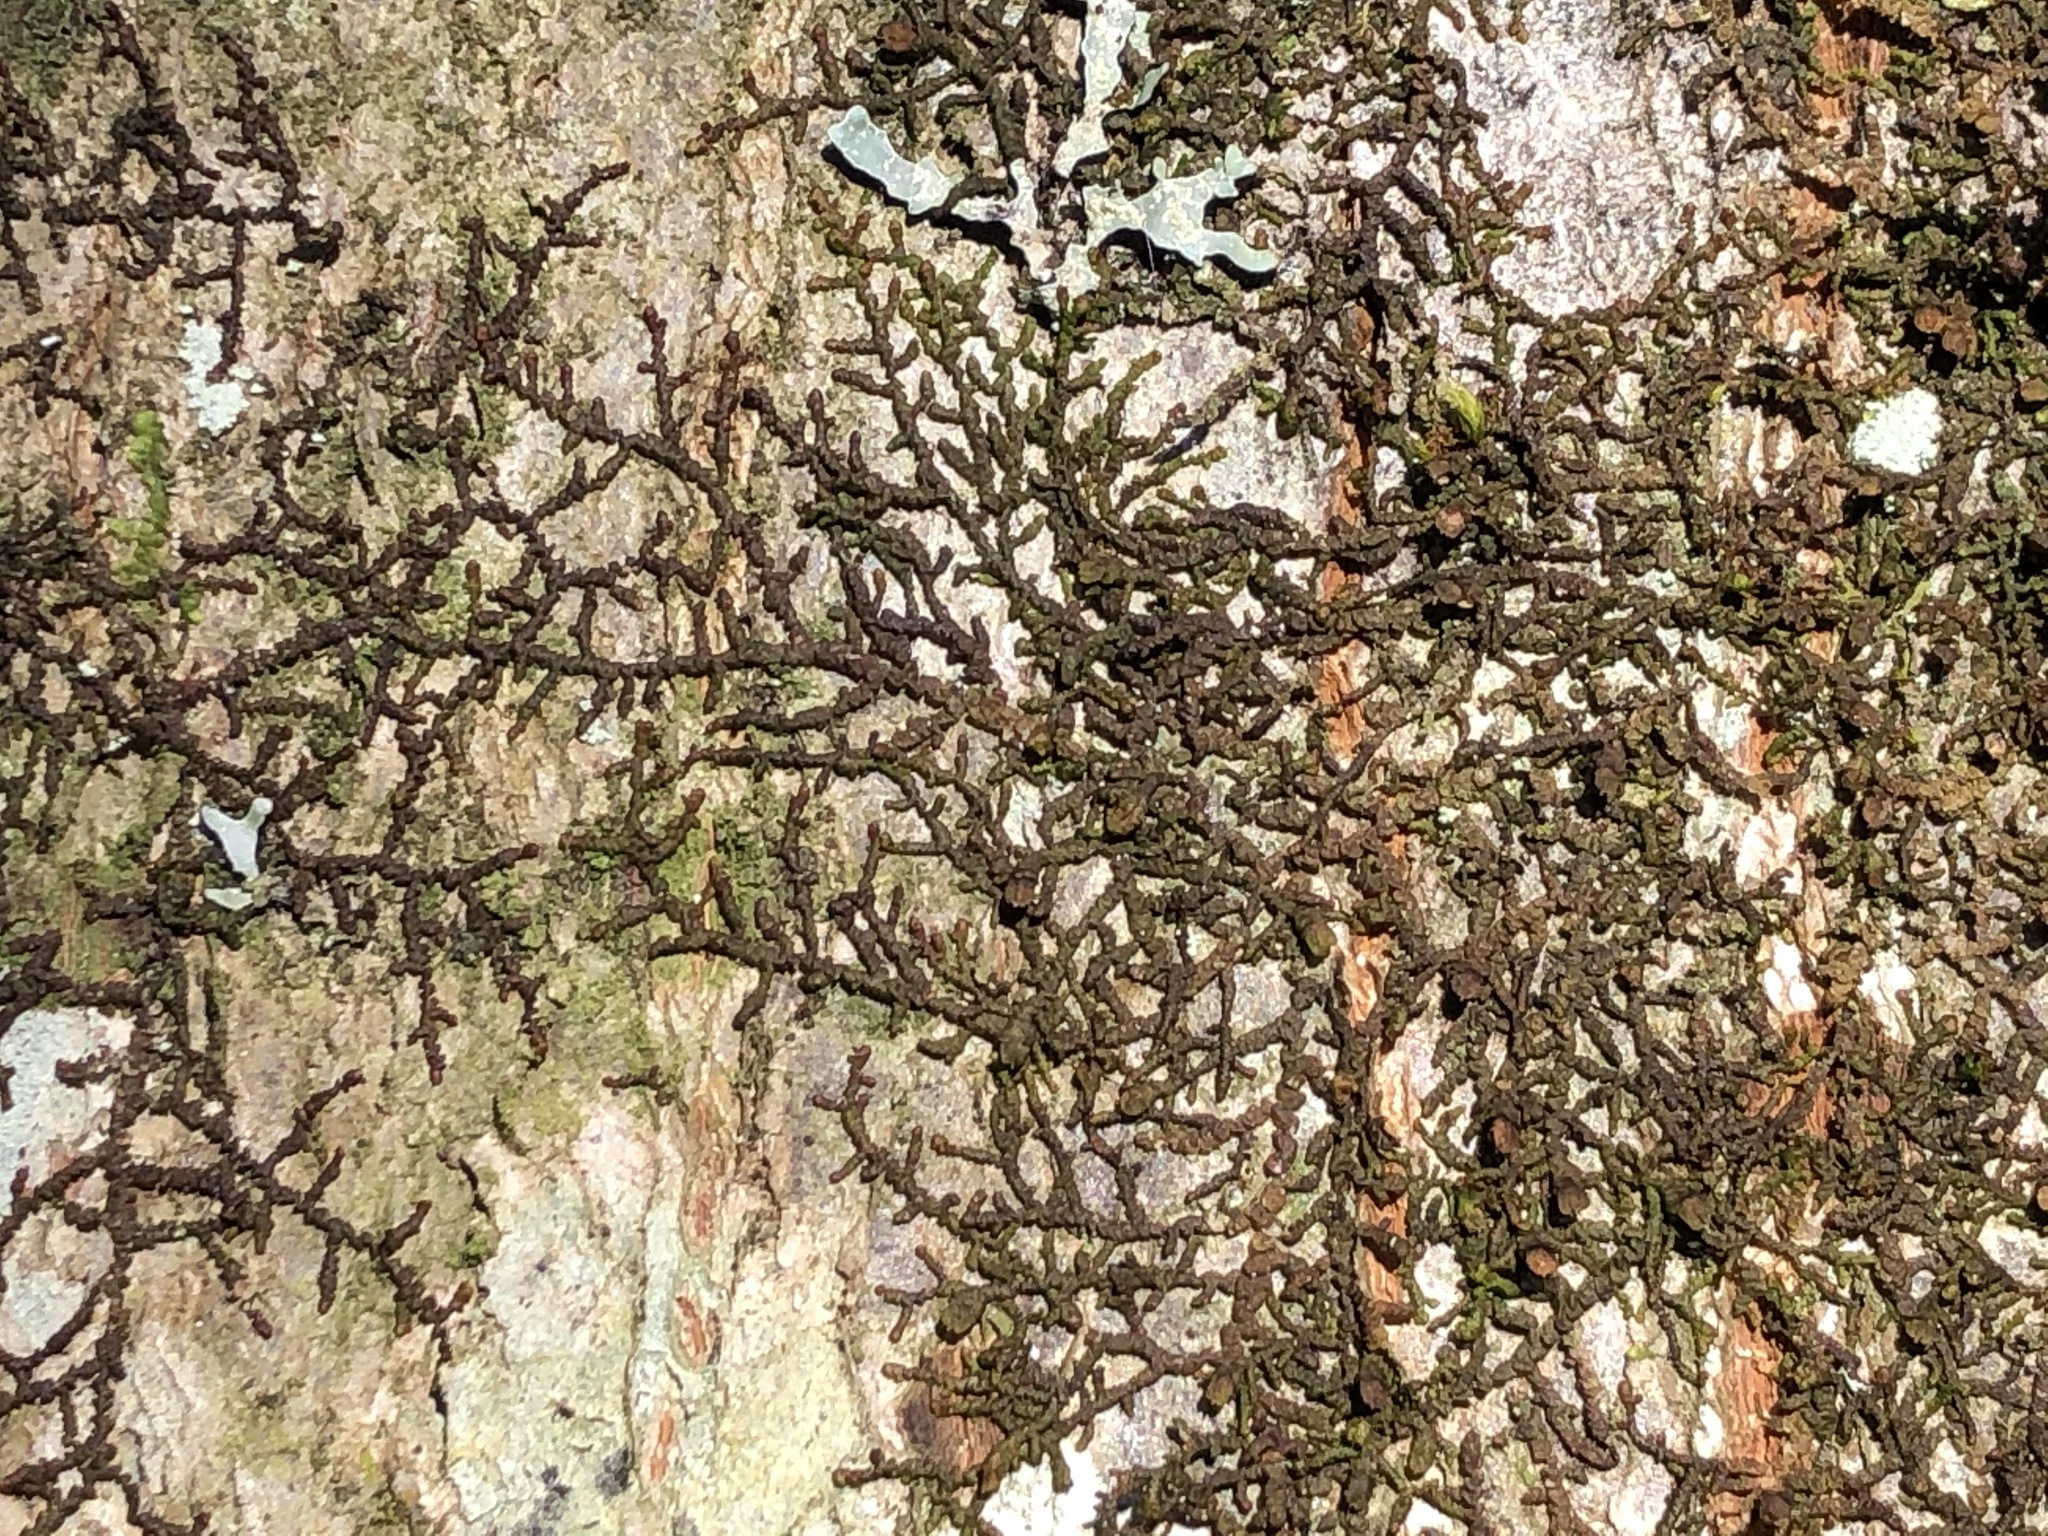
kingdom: Plantae
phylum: Marchantiophyta
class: Jungermanniopsida
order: Porellales
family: Frullaniaceae
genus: Frullania
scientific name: Frullania dilatata
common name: Dilated scalewort
